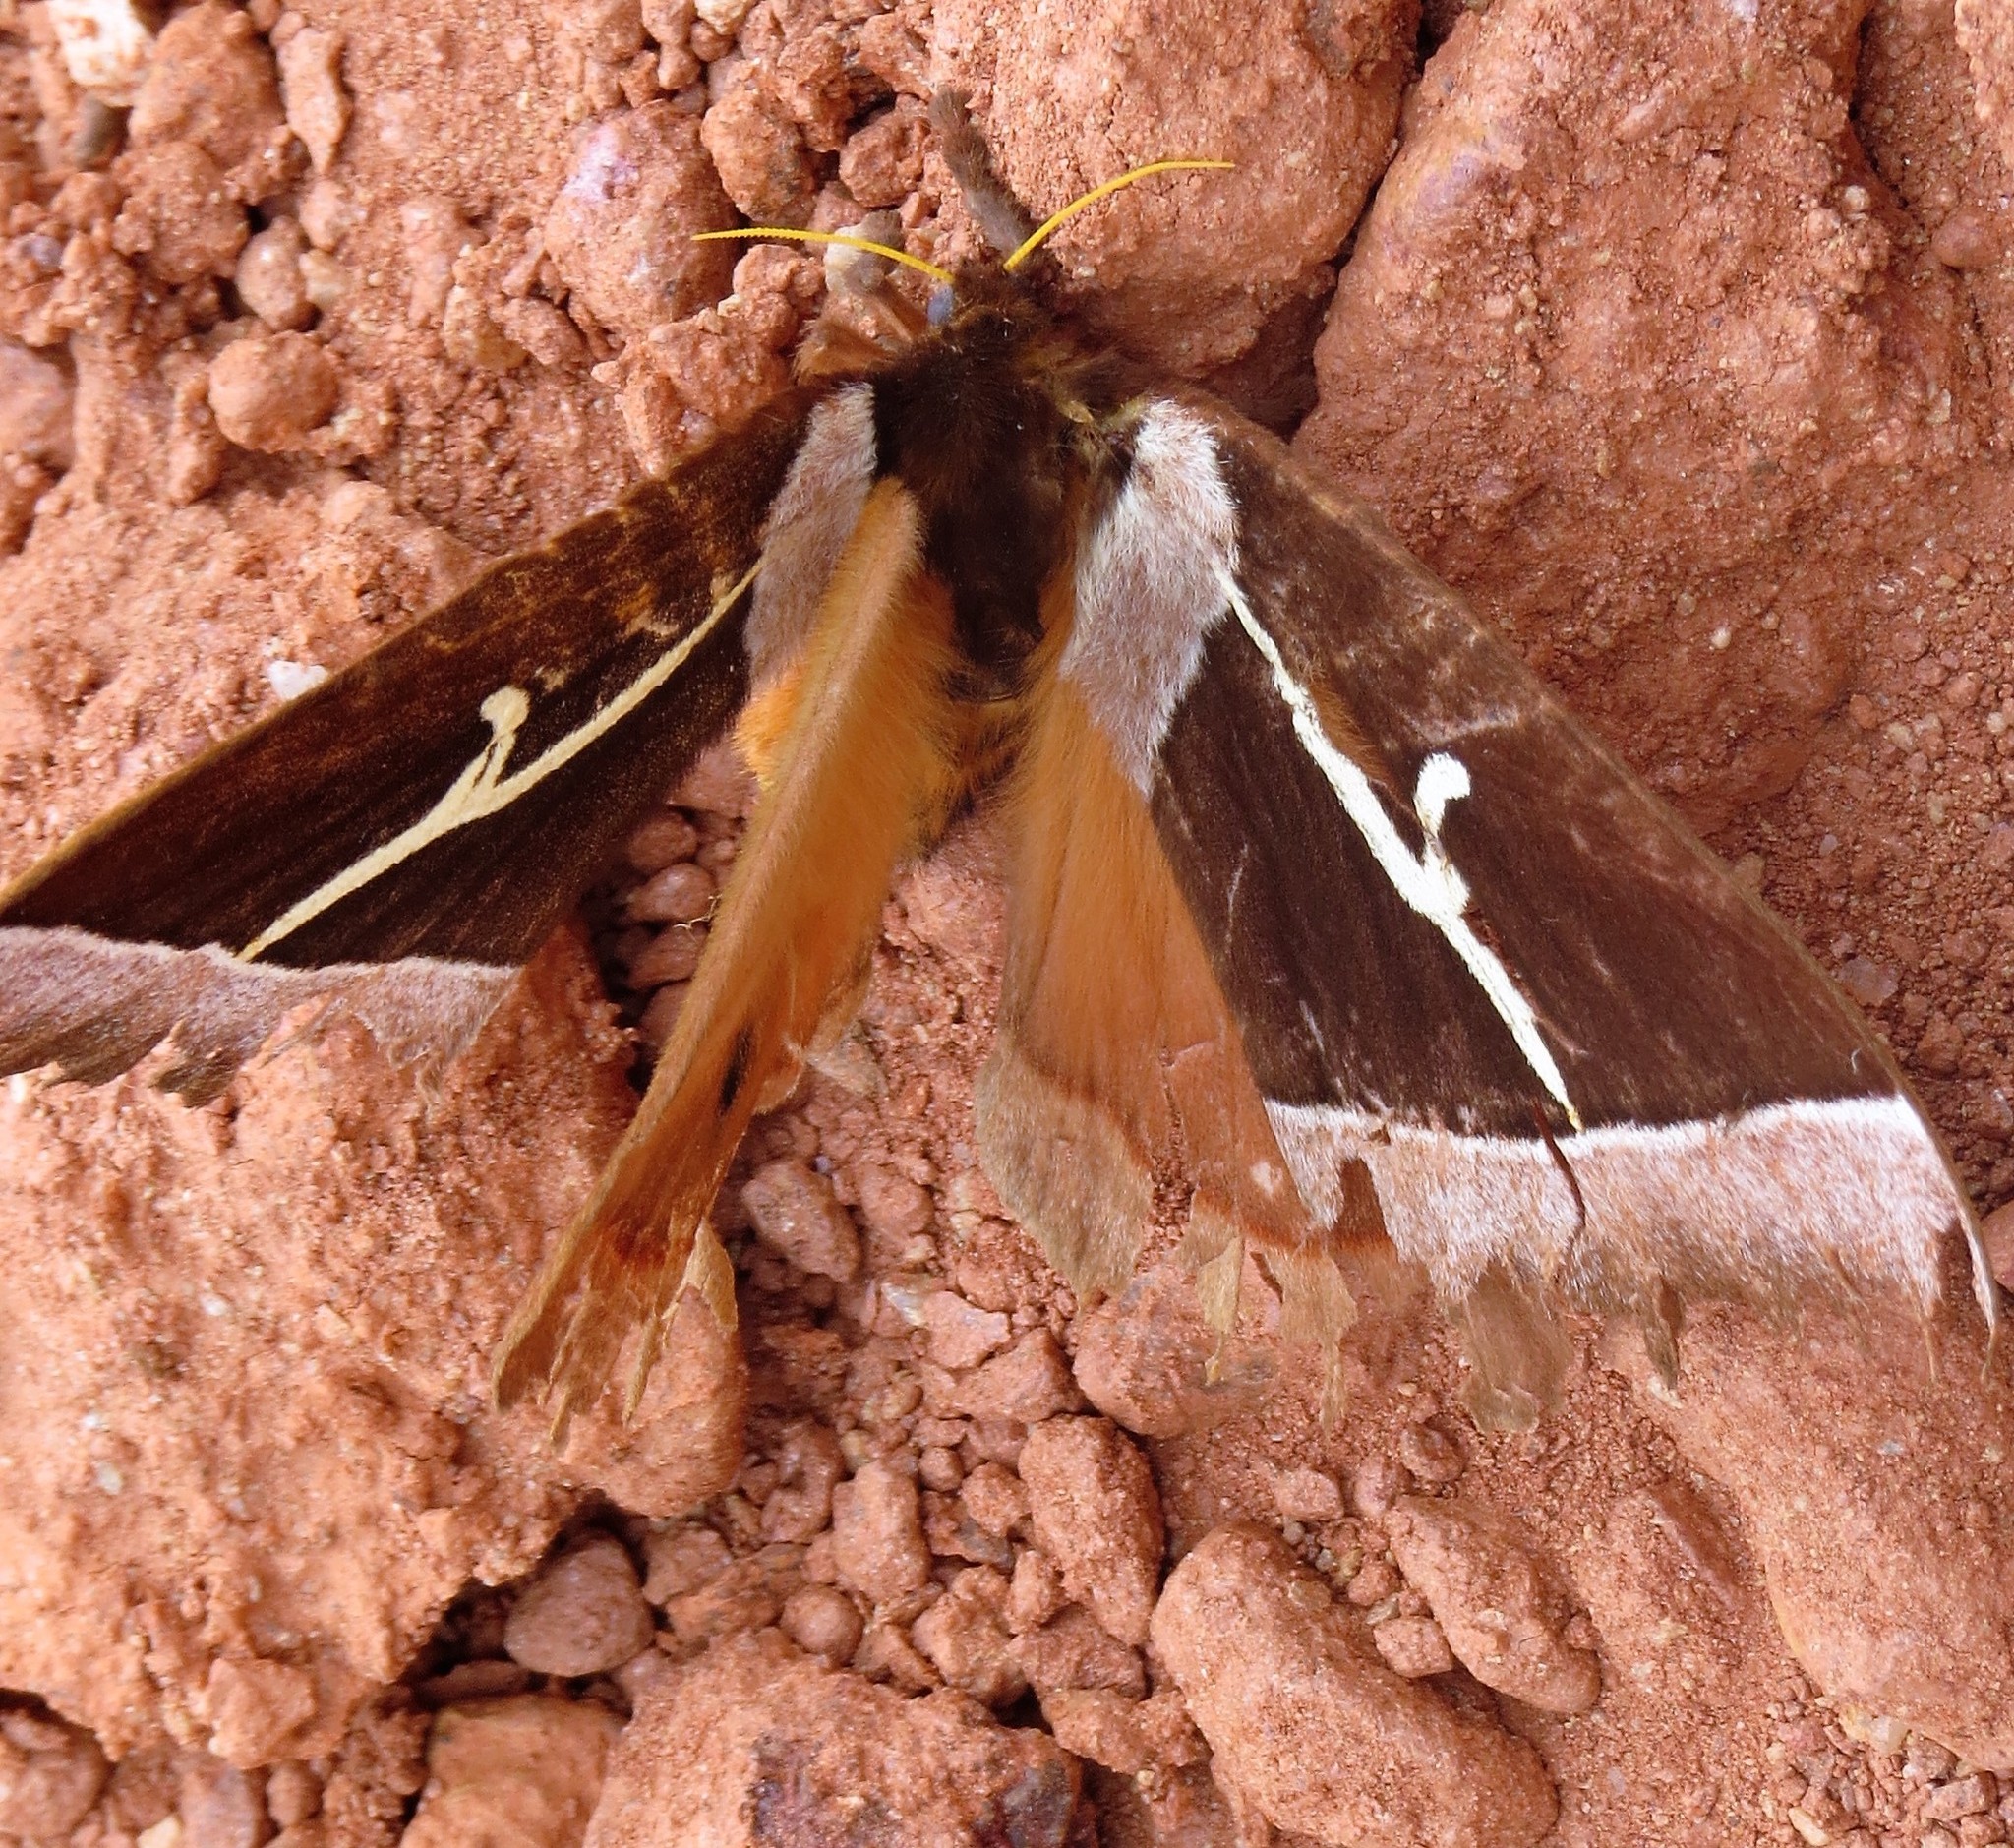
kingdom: Animalia
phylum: Arthropoda
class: Insecta
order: Lepidoptera
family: Saturniidae
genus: Dirphia
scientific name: Dirphia tarquinia
